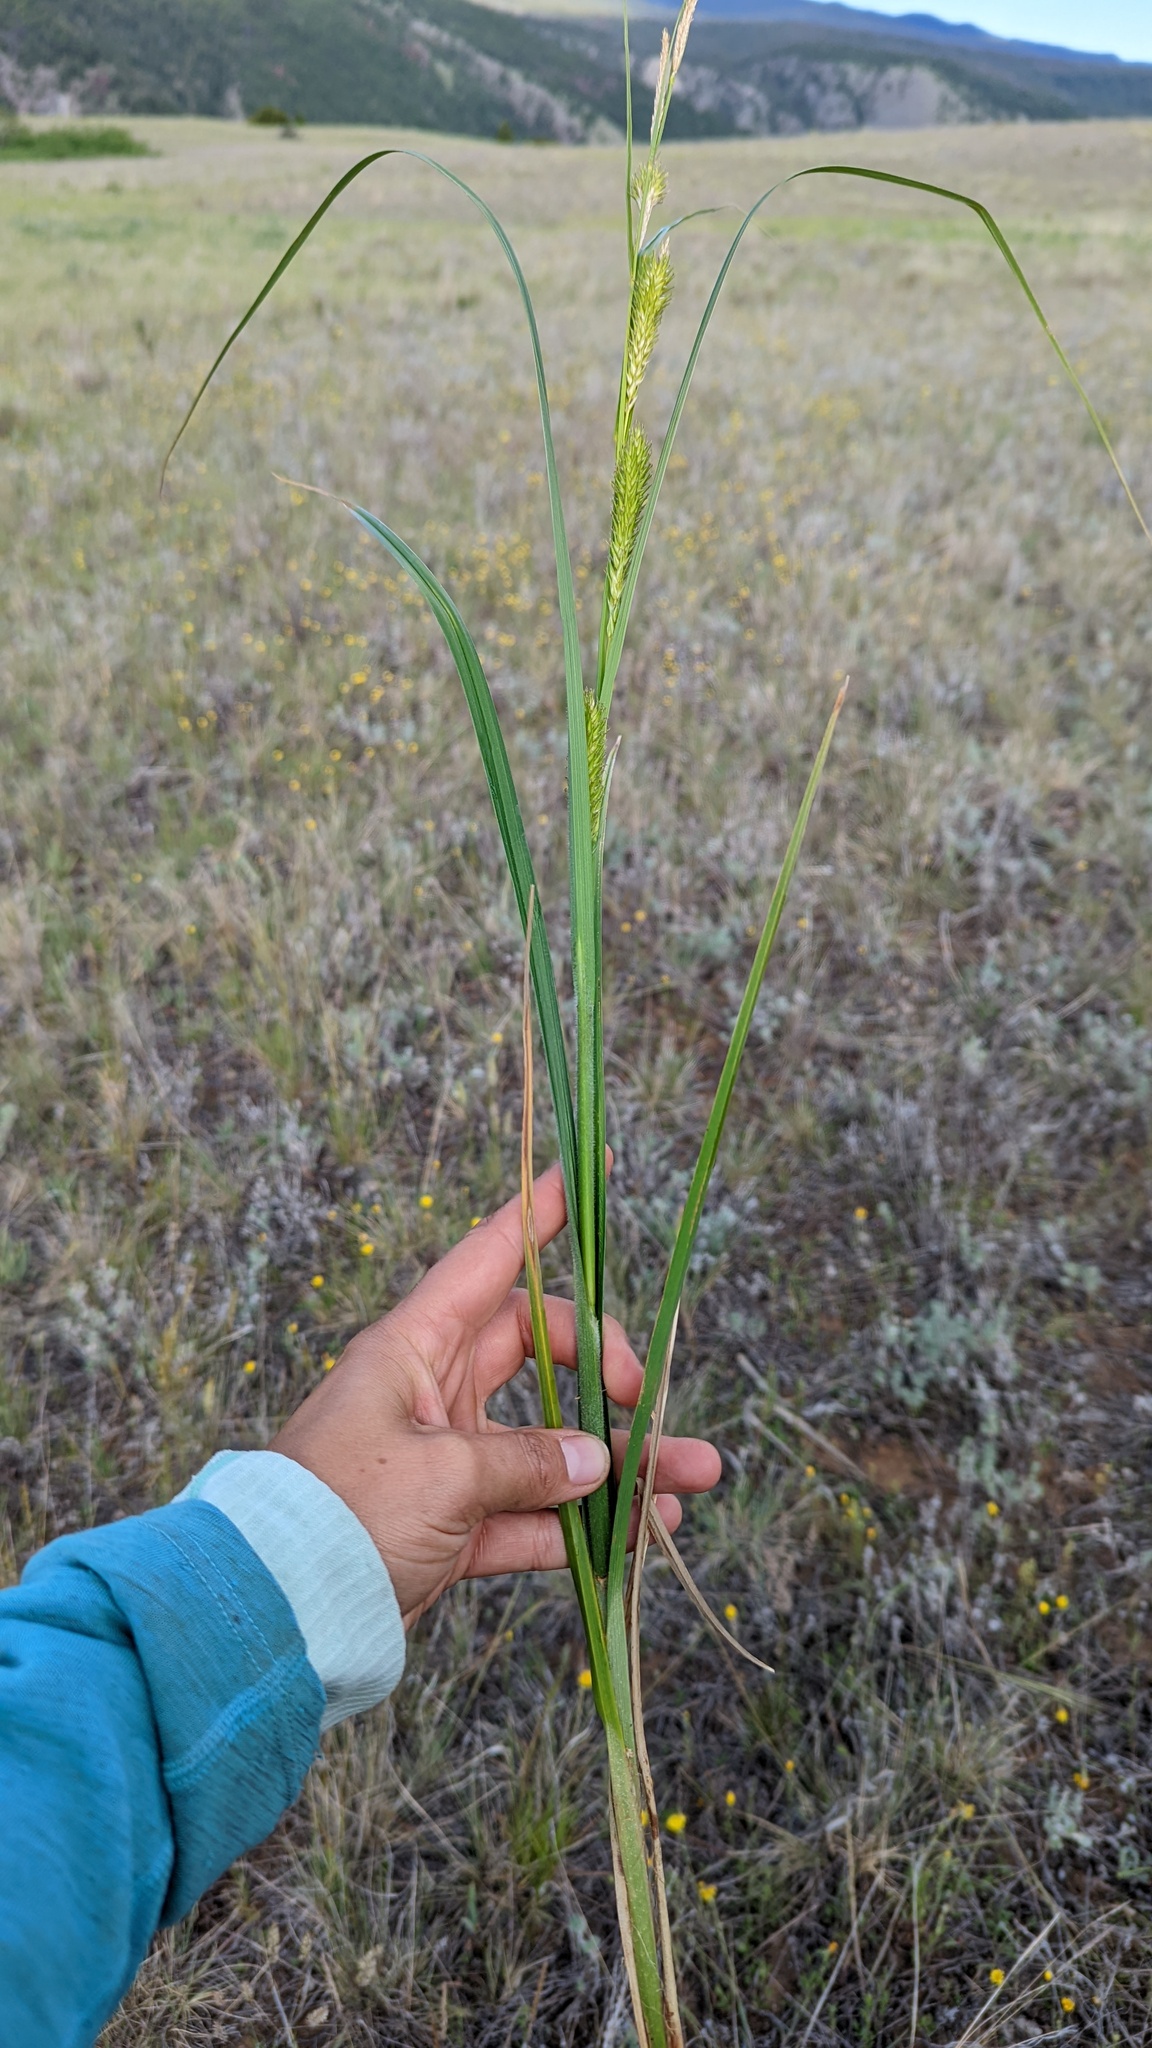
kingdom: Plantae
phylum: Tracheophyta
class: Liliopsida
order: Poales
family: Cyperaceae
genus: Carex
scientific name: Carex atherodes
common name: Wheat sedge
